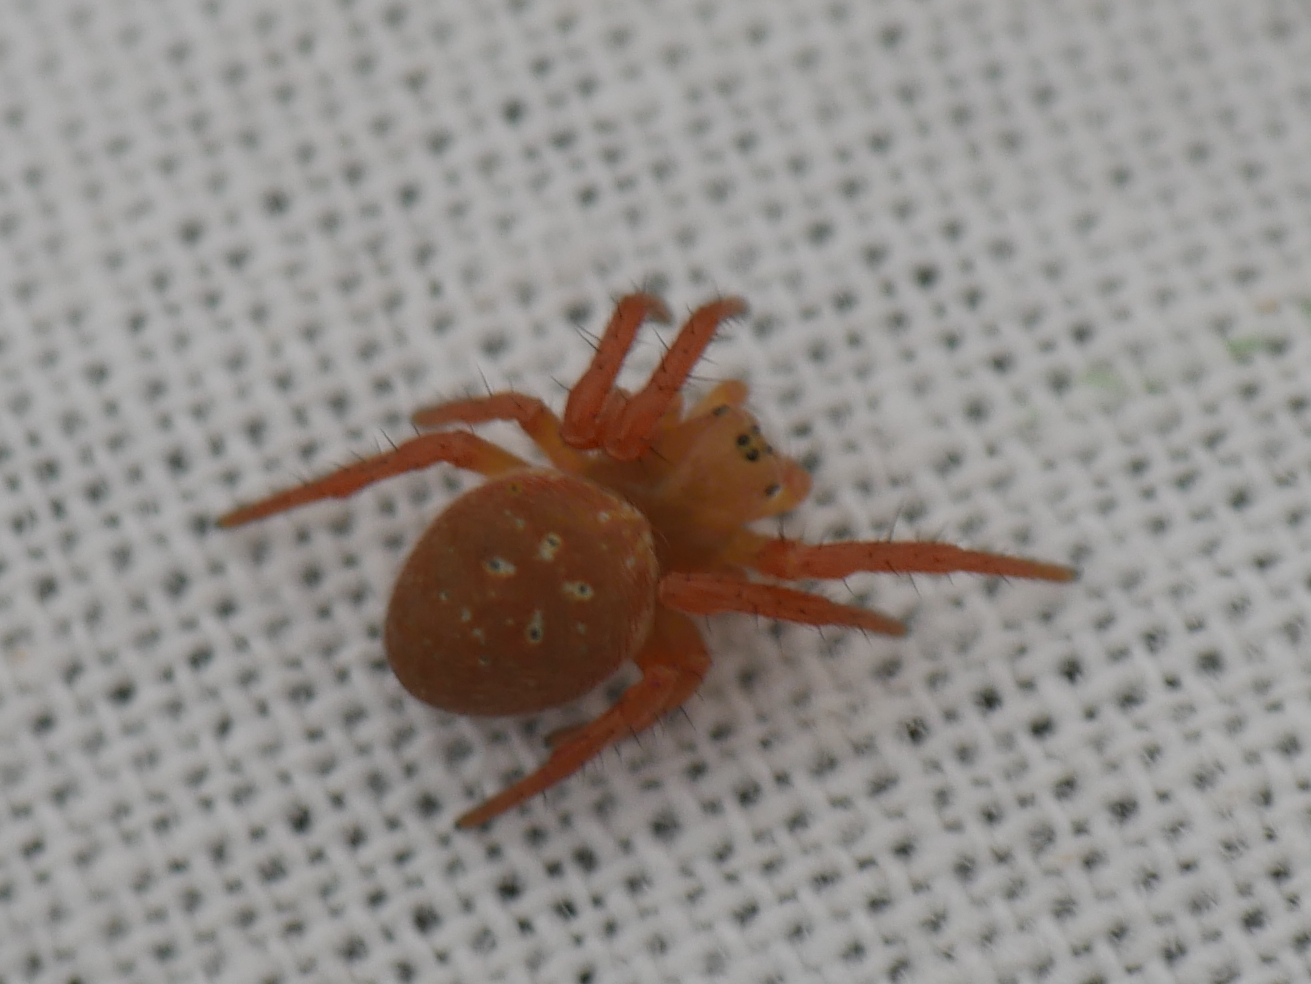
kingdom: Animalia
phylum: Arthropoda
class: Arachnida
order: Araneae
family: Araneidae
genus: Araniella
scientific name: Araniella inconspicua
